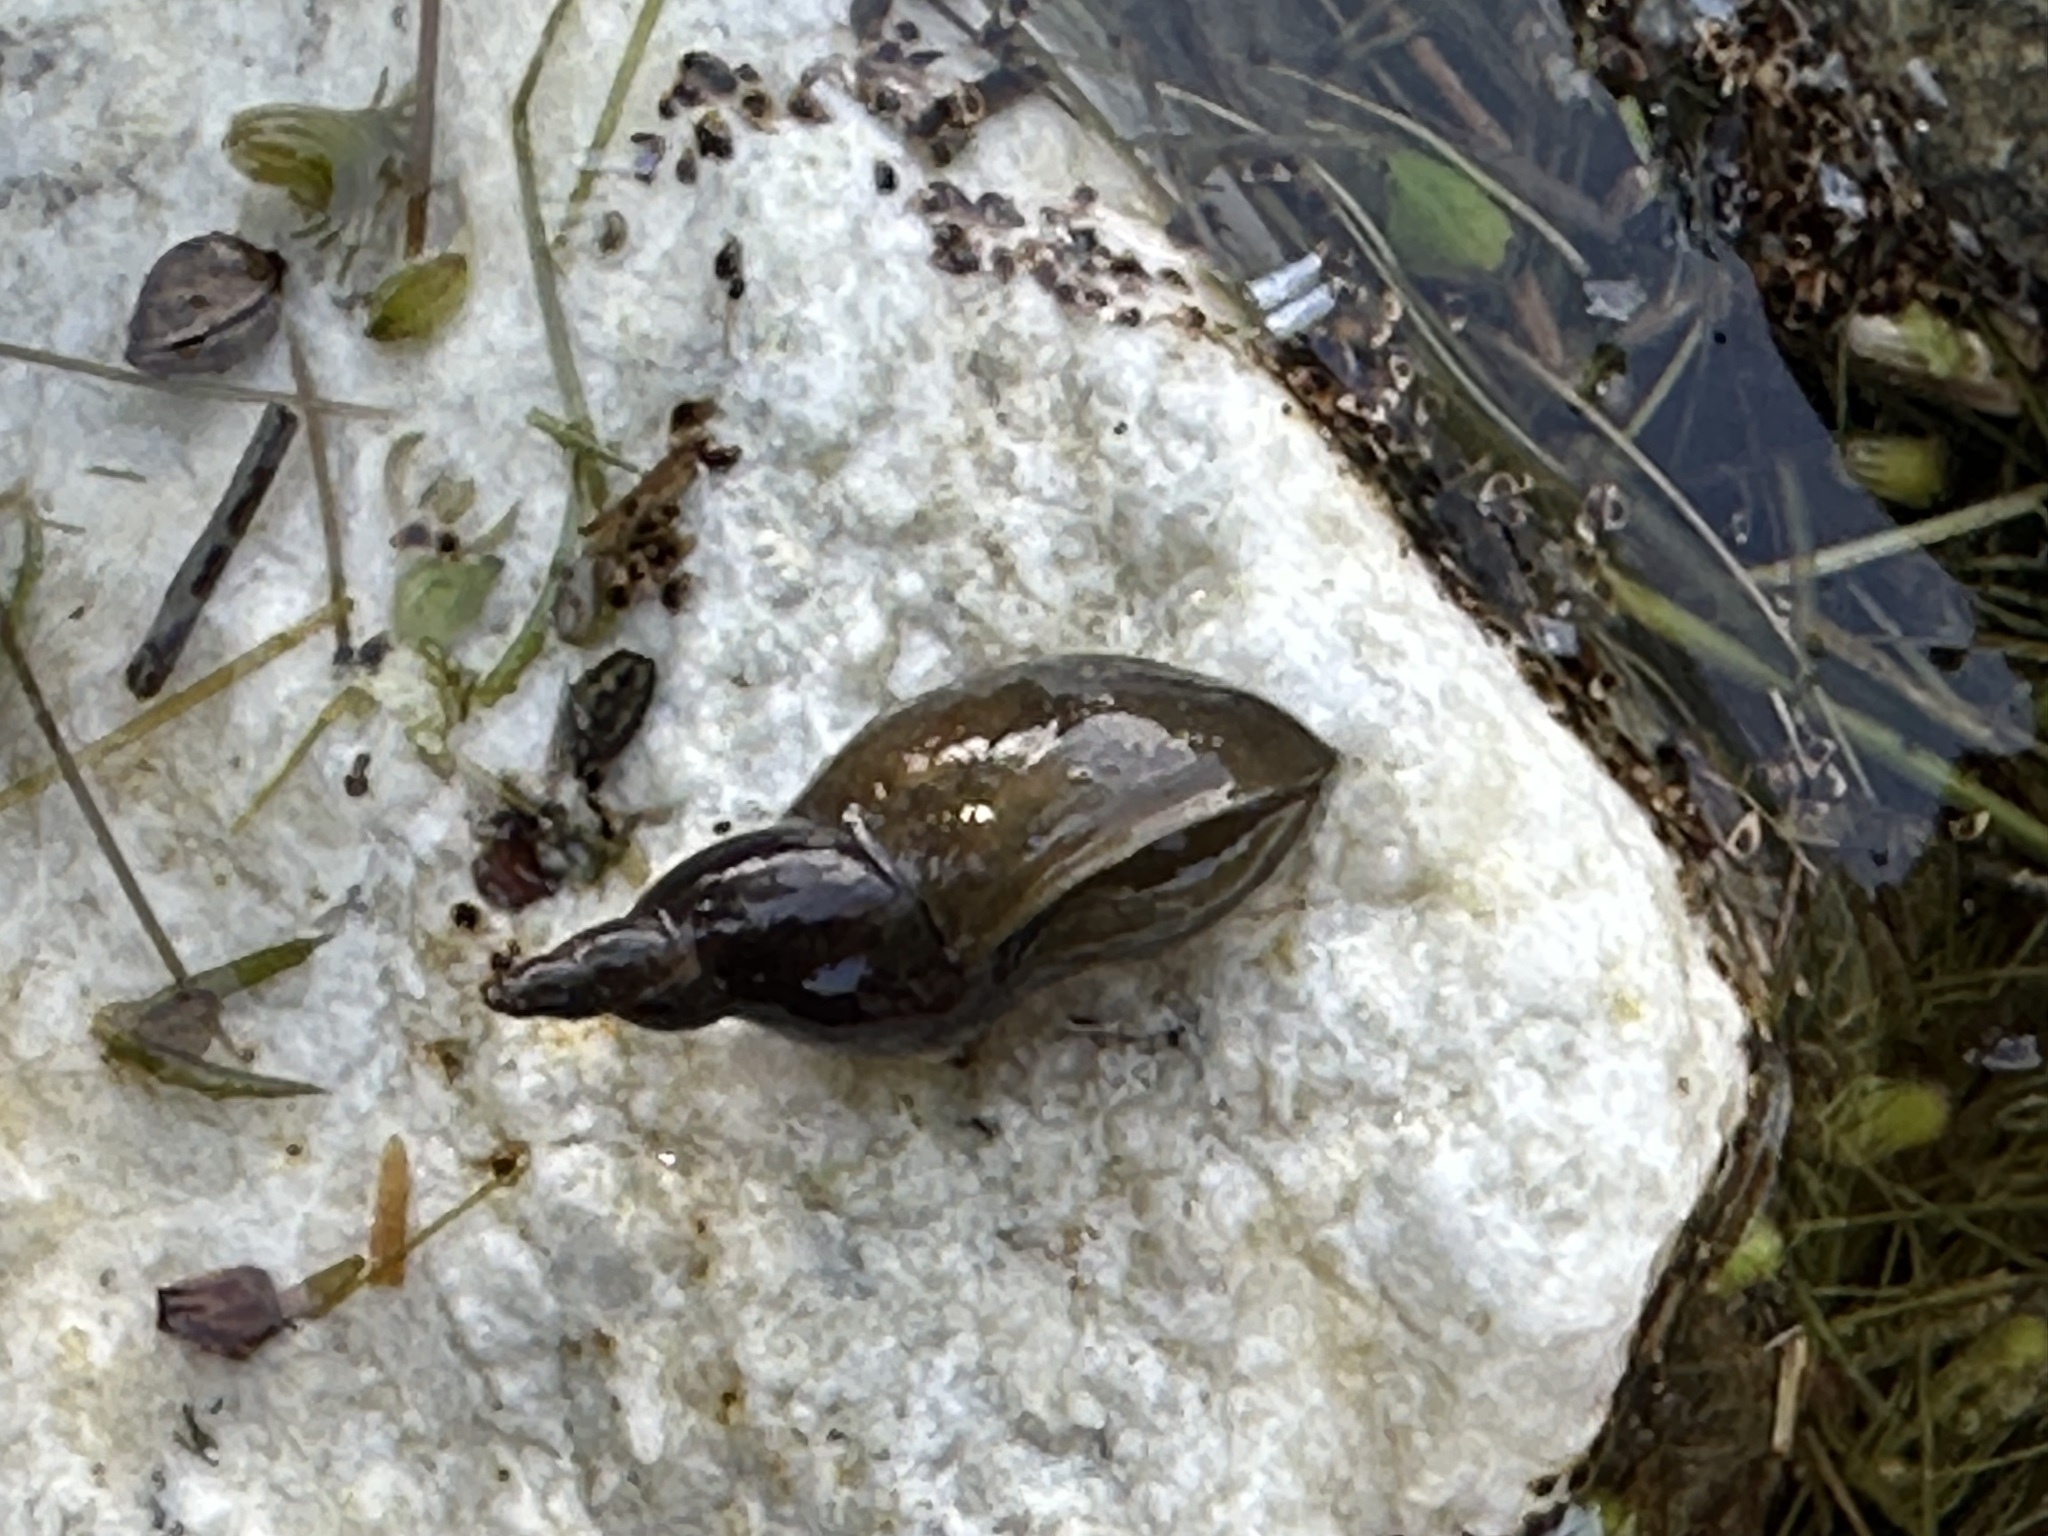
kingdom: Animalia
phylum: Mollusca
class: Gastropoda
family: Lymnaeidae
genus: Lymnaea
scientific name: Lymnaea stagnalis
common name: Great pond snail
